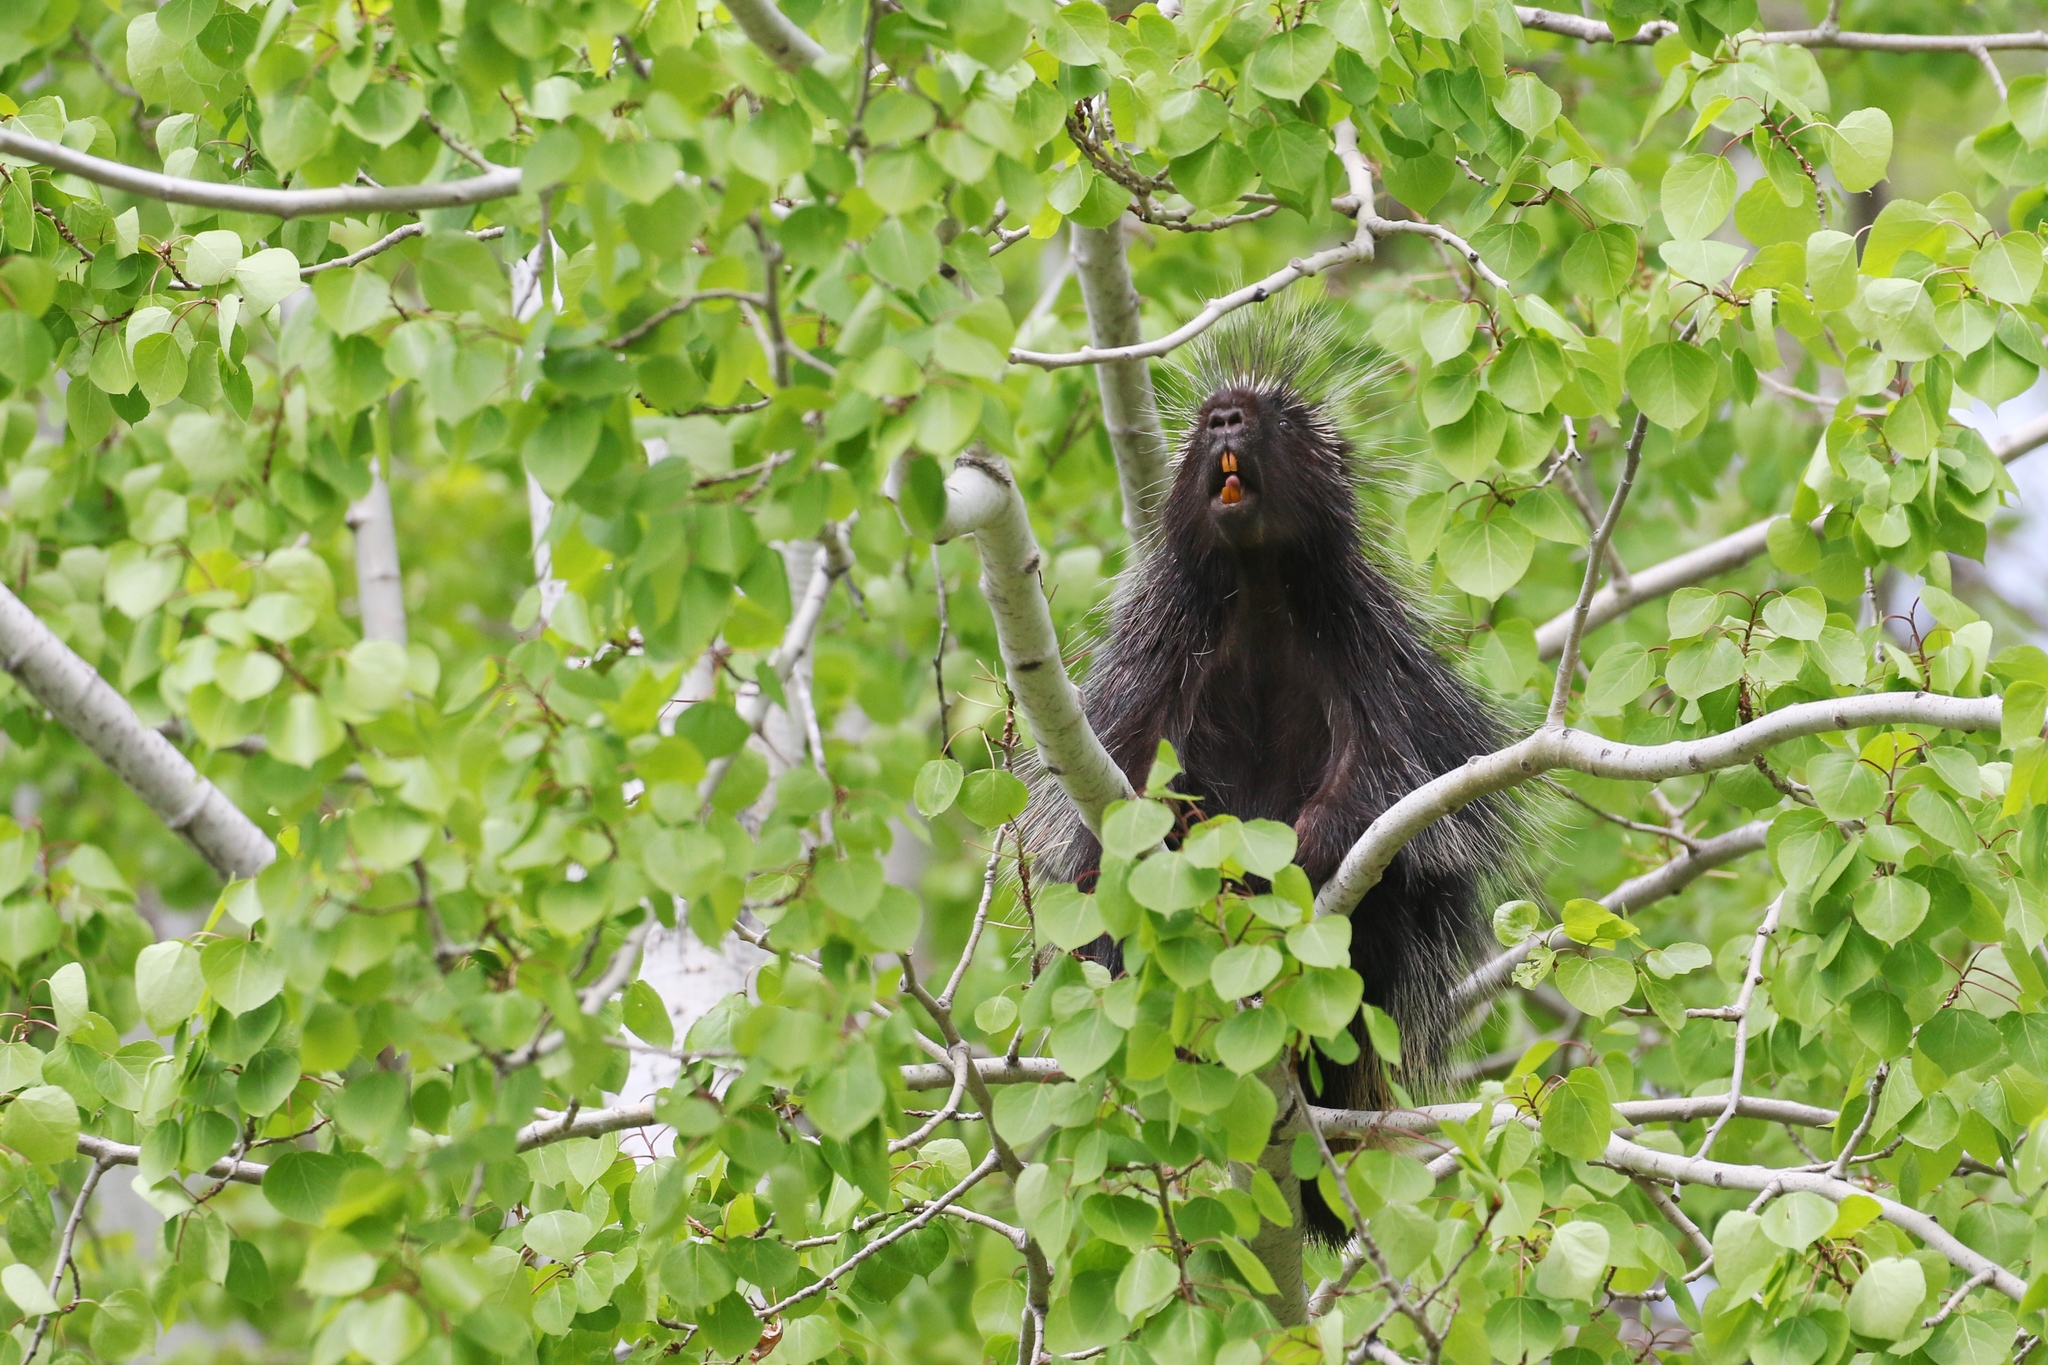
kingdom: Animalia
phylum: Chordata
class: Mammalia
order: Rodentia
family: Erethizontidae
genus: Erethizon
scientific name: Erethizon dorsatus
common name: North american porcupine
